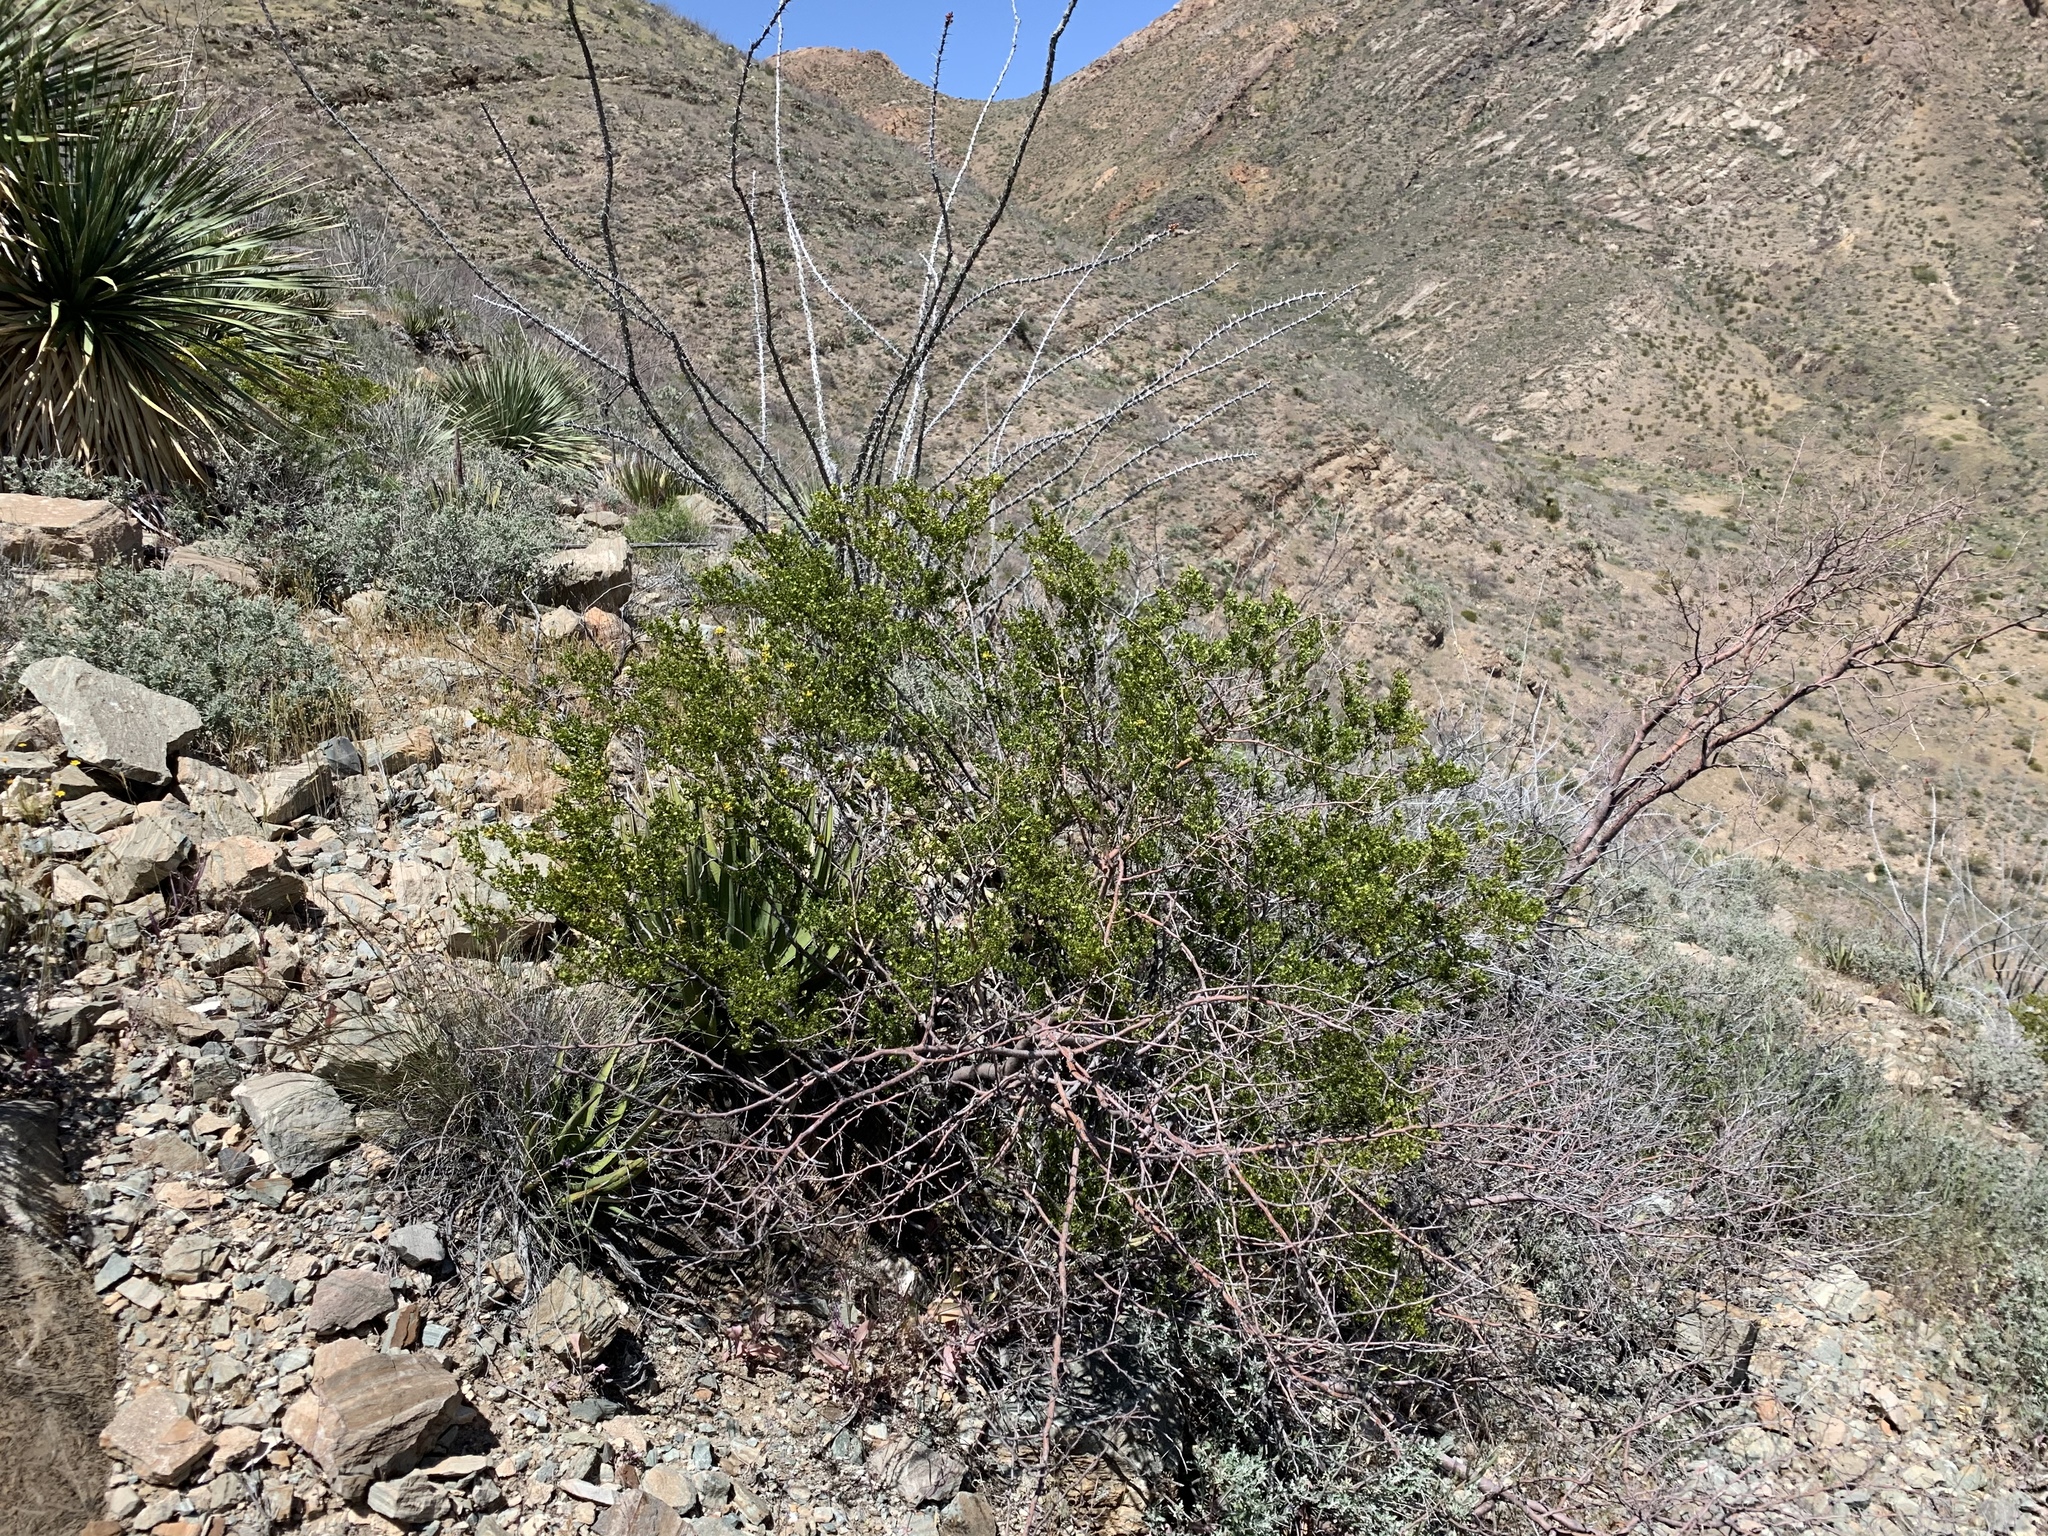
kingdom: Plantae
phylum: Tracheophyta
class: Magnoliopsida
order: Zygophyllales
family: Zygophyllaceae
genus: Larrea
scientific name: Larrea tridentata
